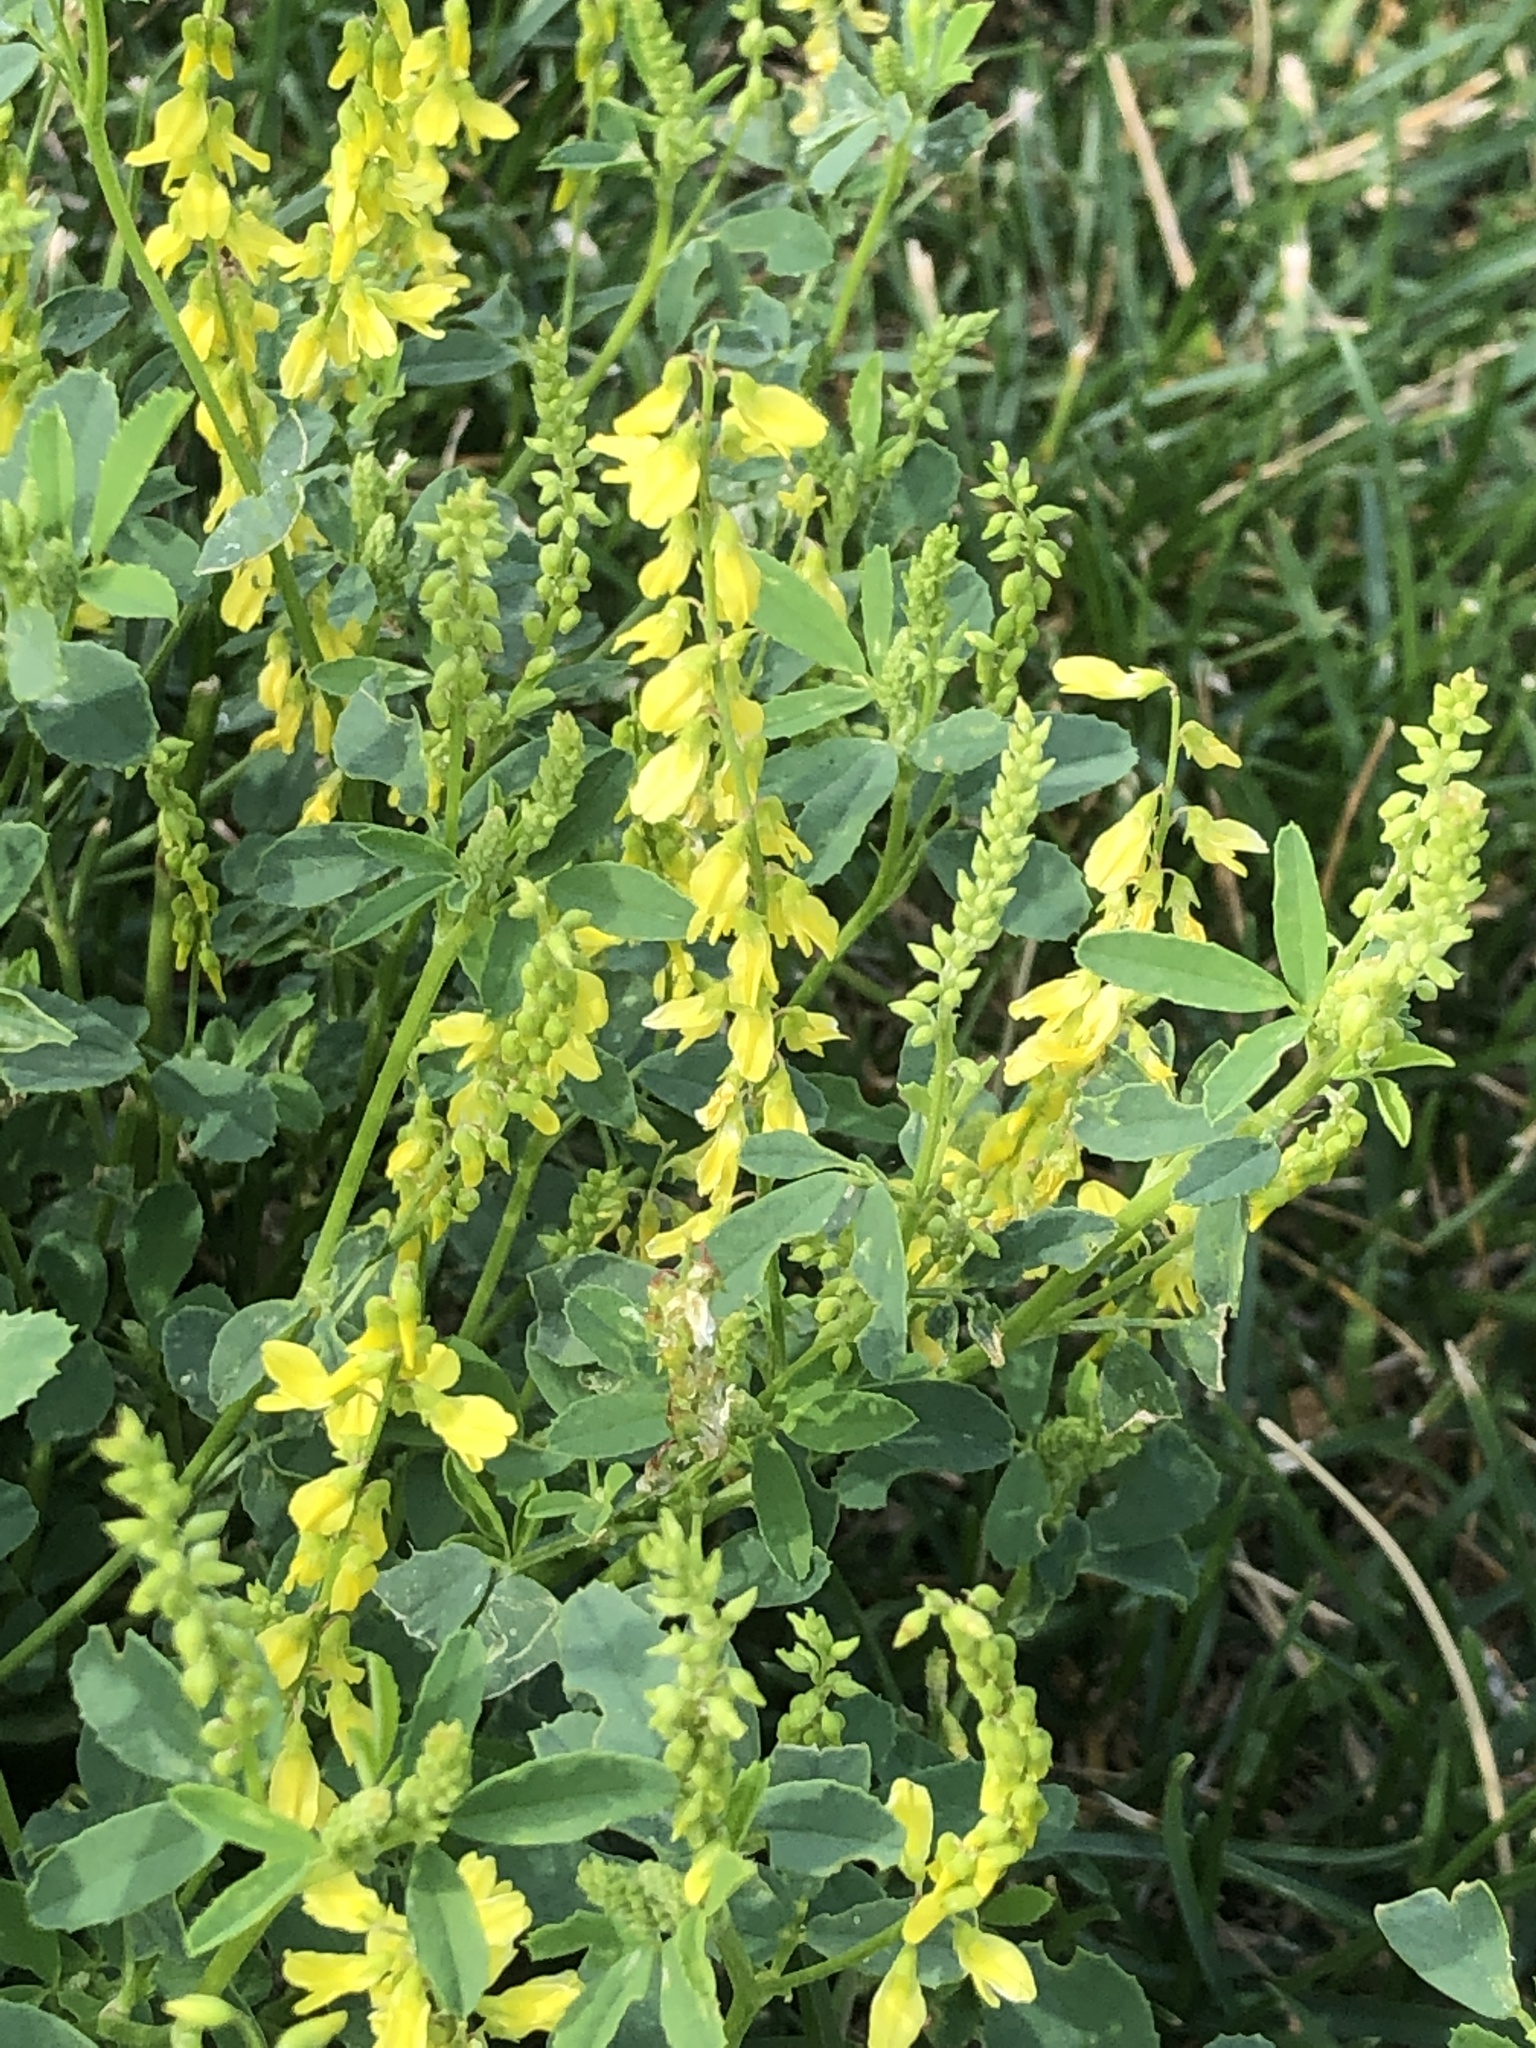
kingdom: Plantae
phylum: Tracheophyta
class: Magnoliopsida
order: Fabales
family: Fabaceae
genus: Melilotus
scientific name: Melilotus officinalis
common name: Sweetclover
